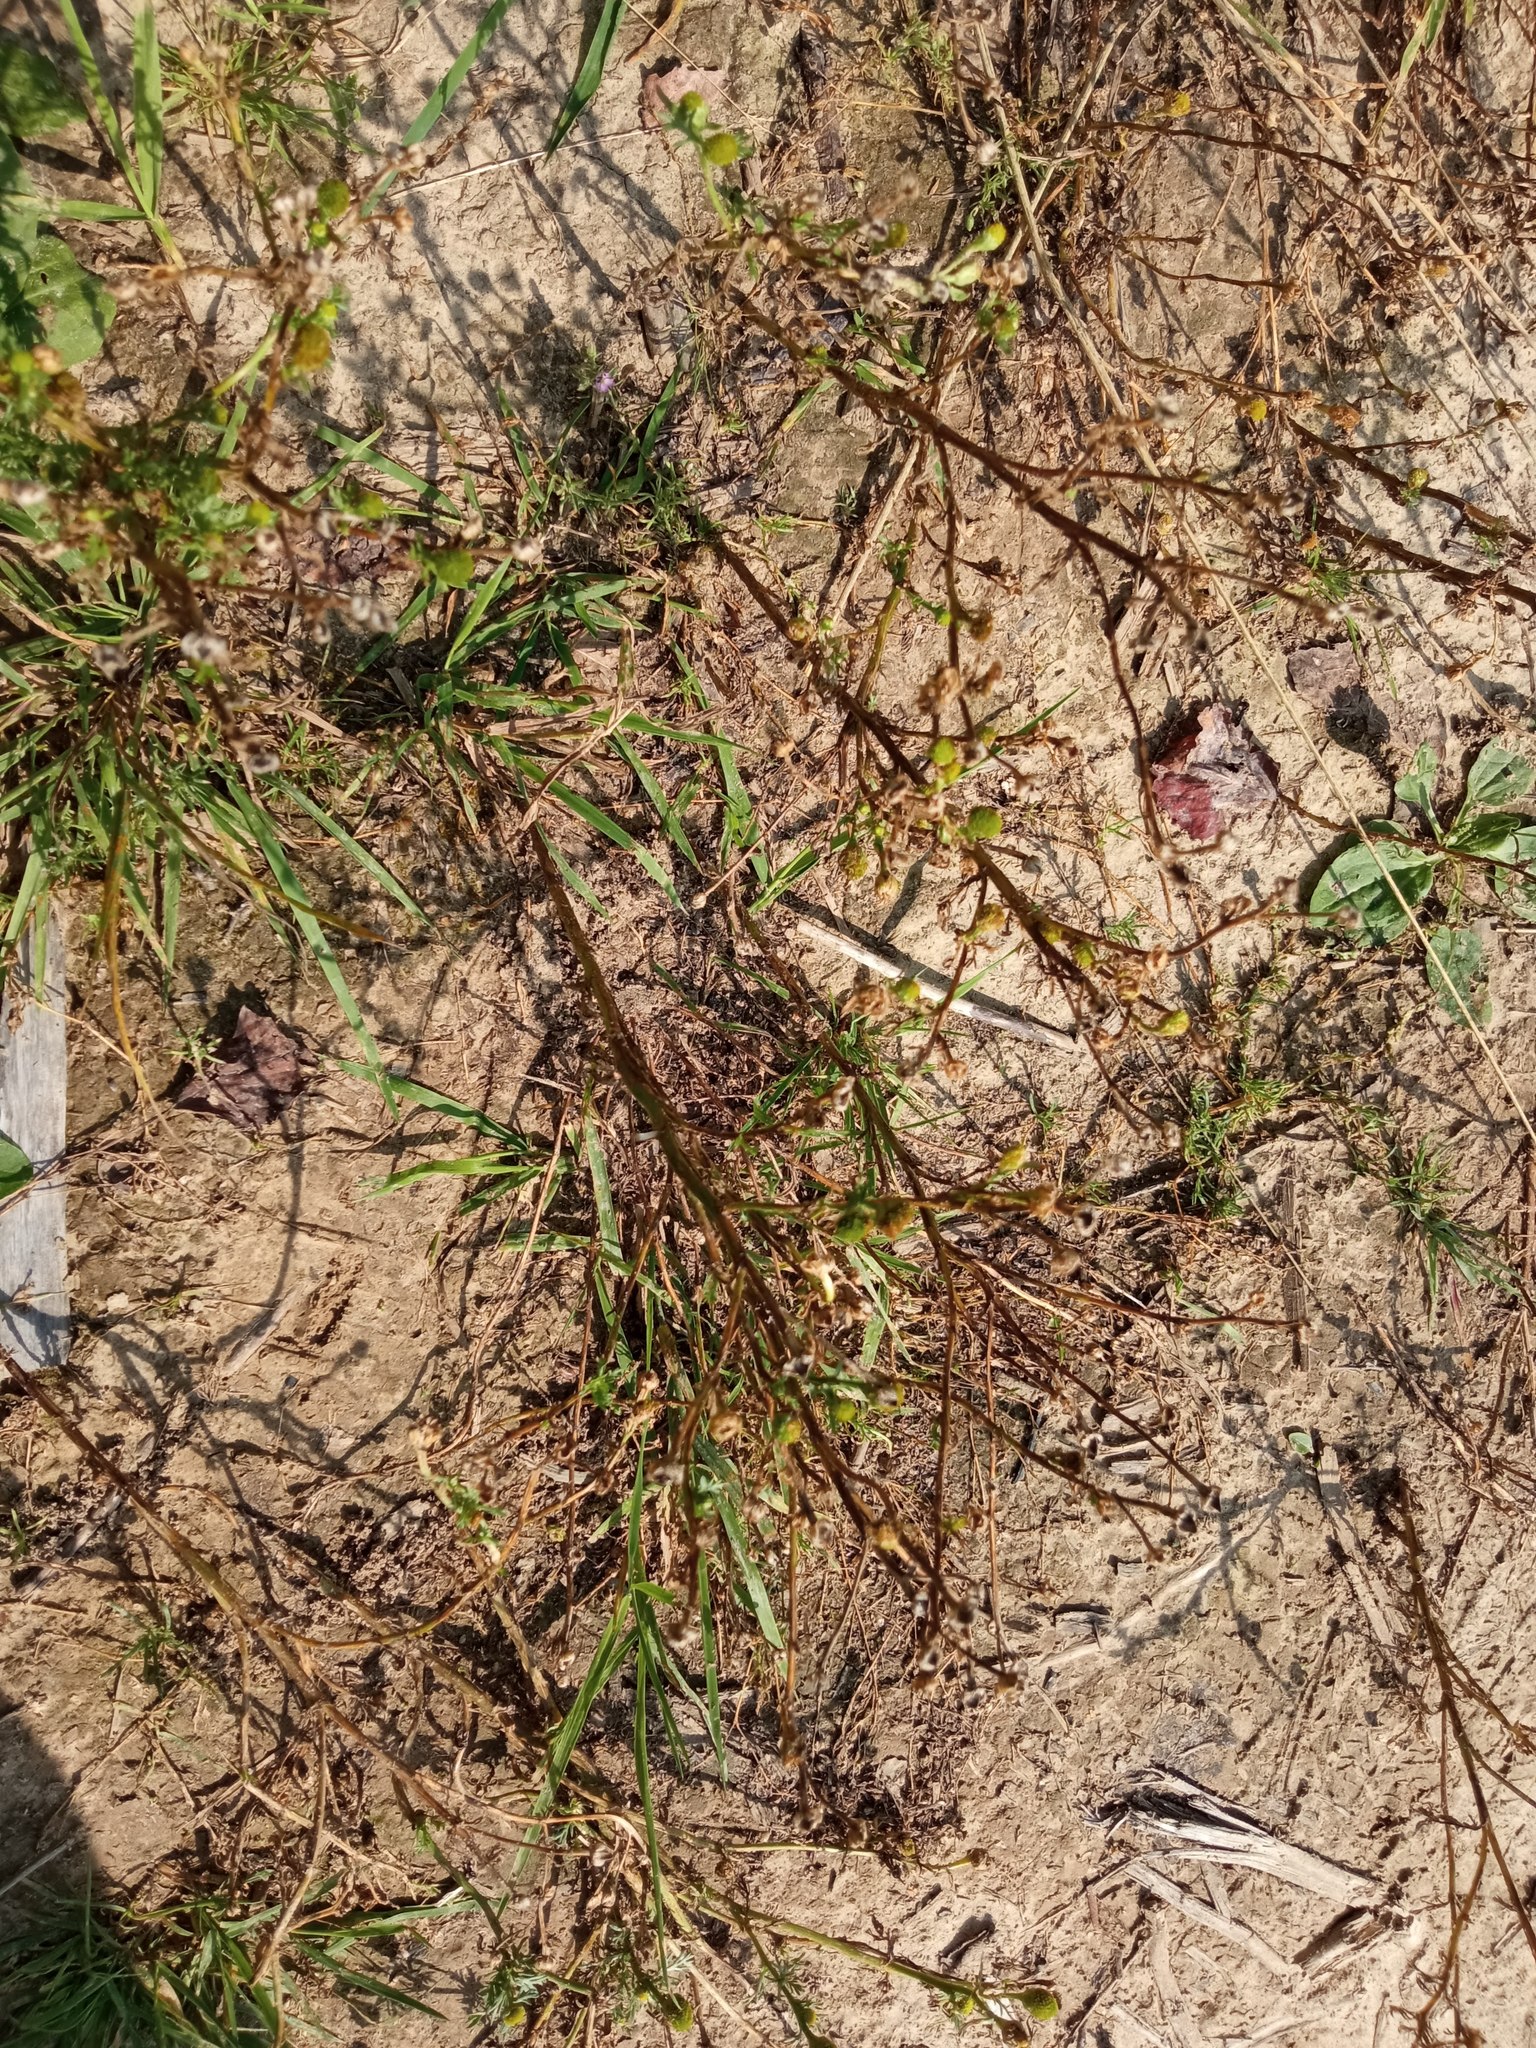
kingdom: Plantae
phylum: Tracheophyta
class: Magnoliopsida
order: Asterales
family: Asteraceae
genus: Matricaria
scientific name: Matricaria discoidea
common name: Disc mayweed
